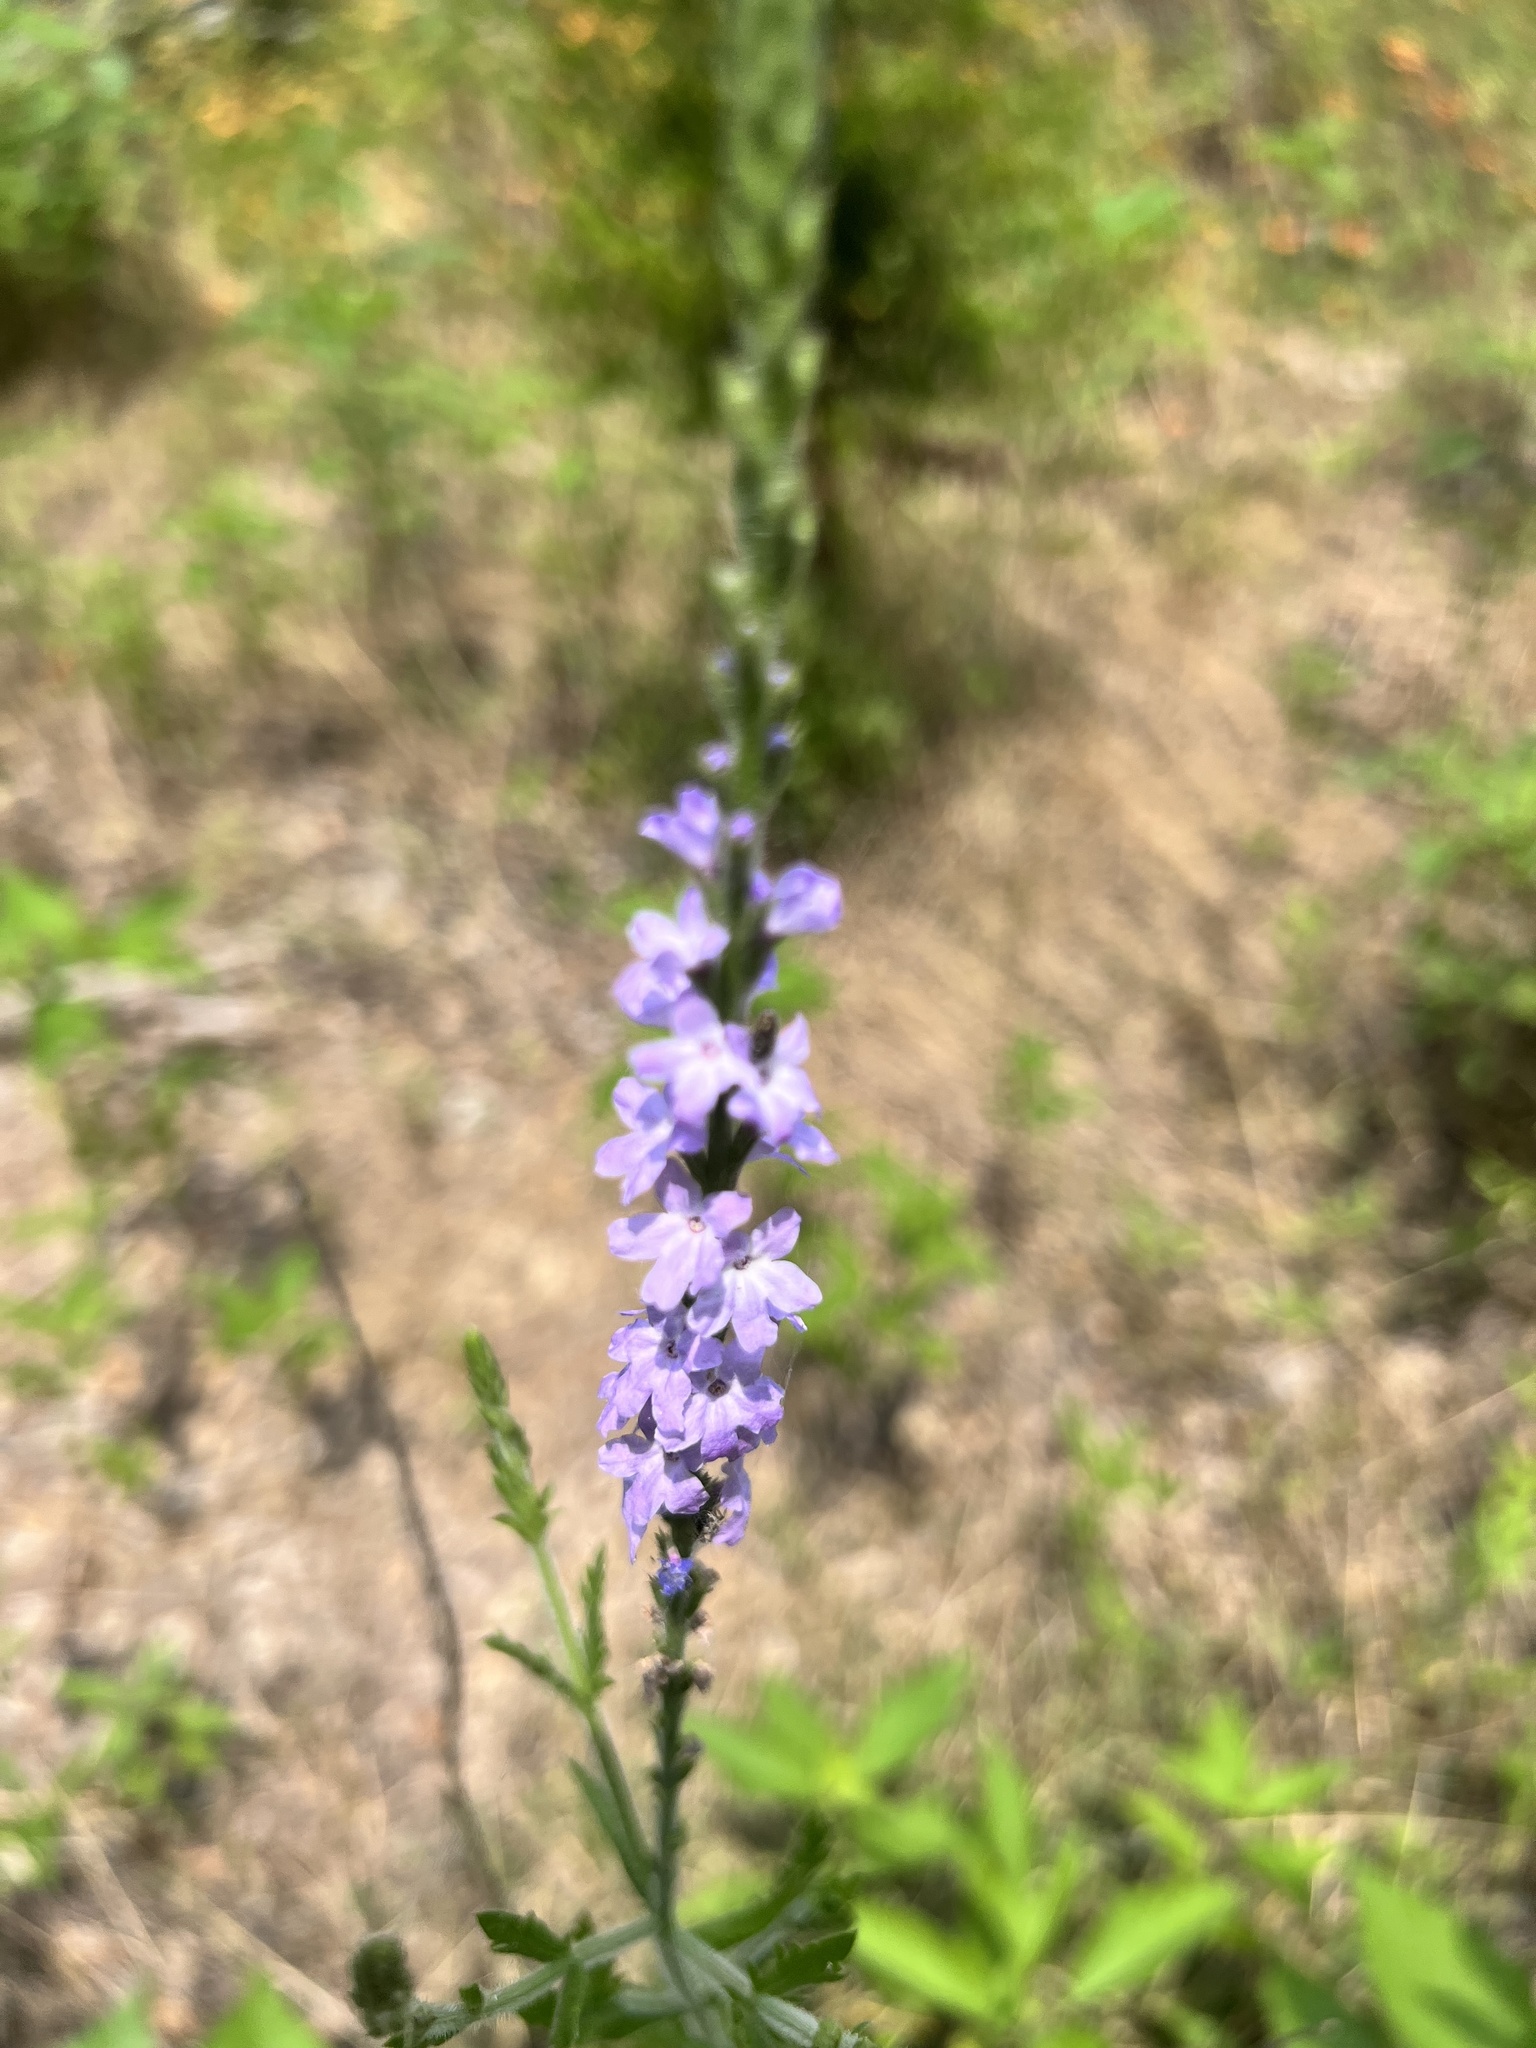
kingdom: Plantae
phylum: Tracheophyta
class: Magnoliopsida
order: Lamiales
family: Verbenaceae
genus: Verbena
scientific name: Verbena xutha
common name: Gulf vervain
